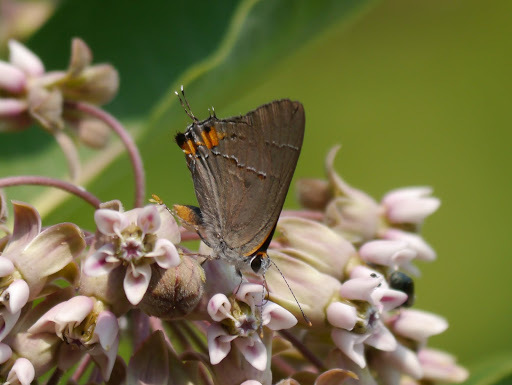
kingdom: Animalia
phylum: Arthropoda
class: Insecta
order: Lepidoptera
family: Lycaenidae
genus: Strymon
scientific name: Strymon melinus
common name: Gray hairstreak
